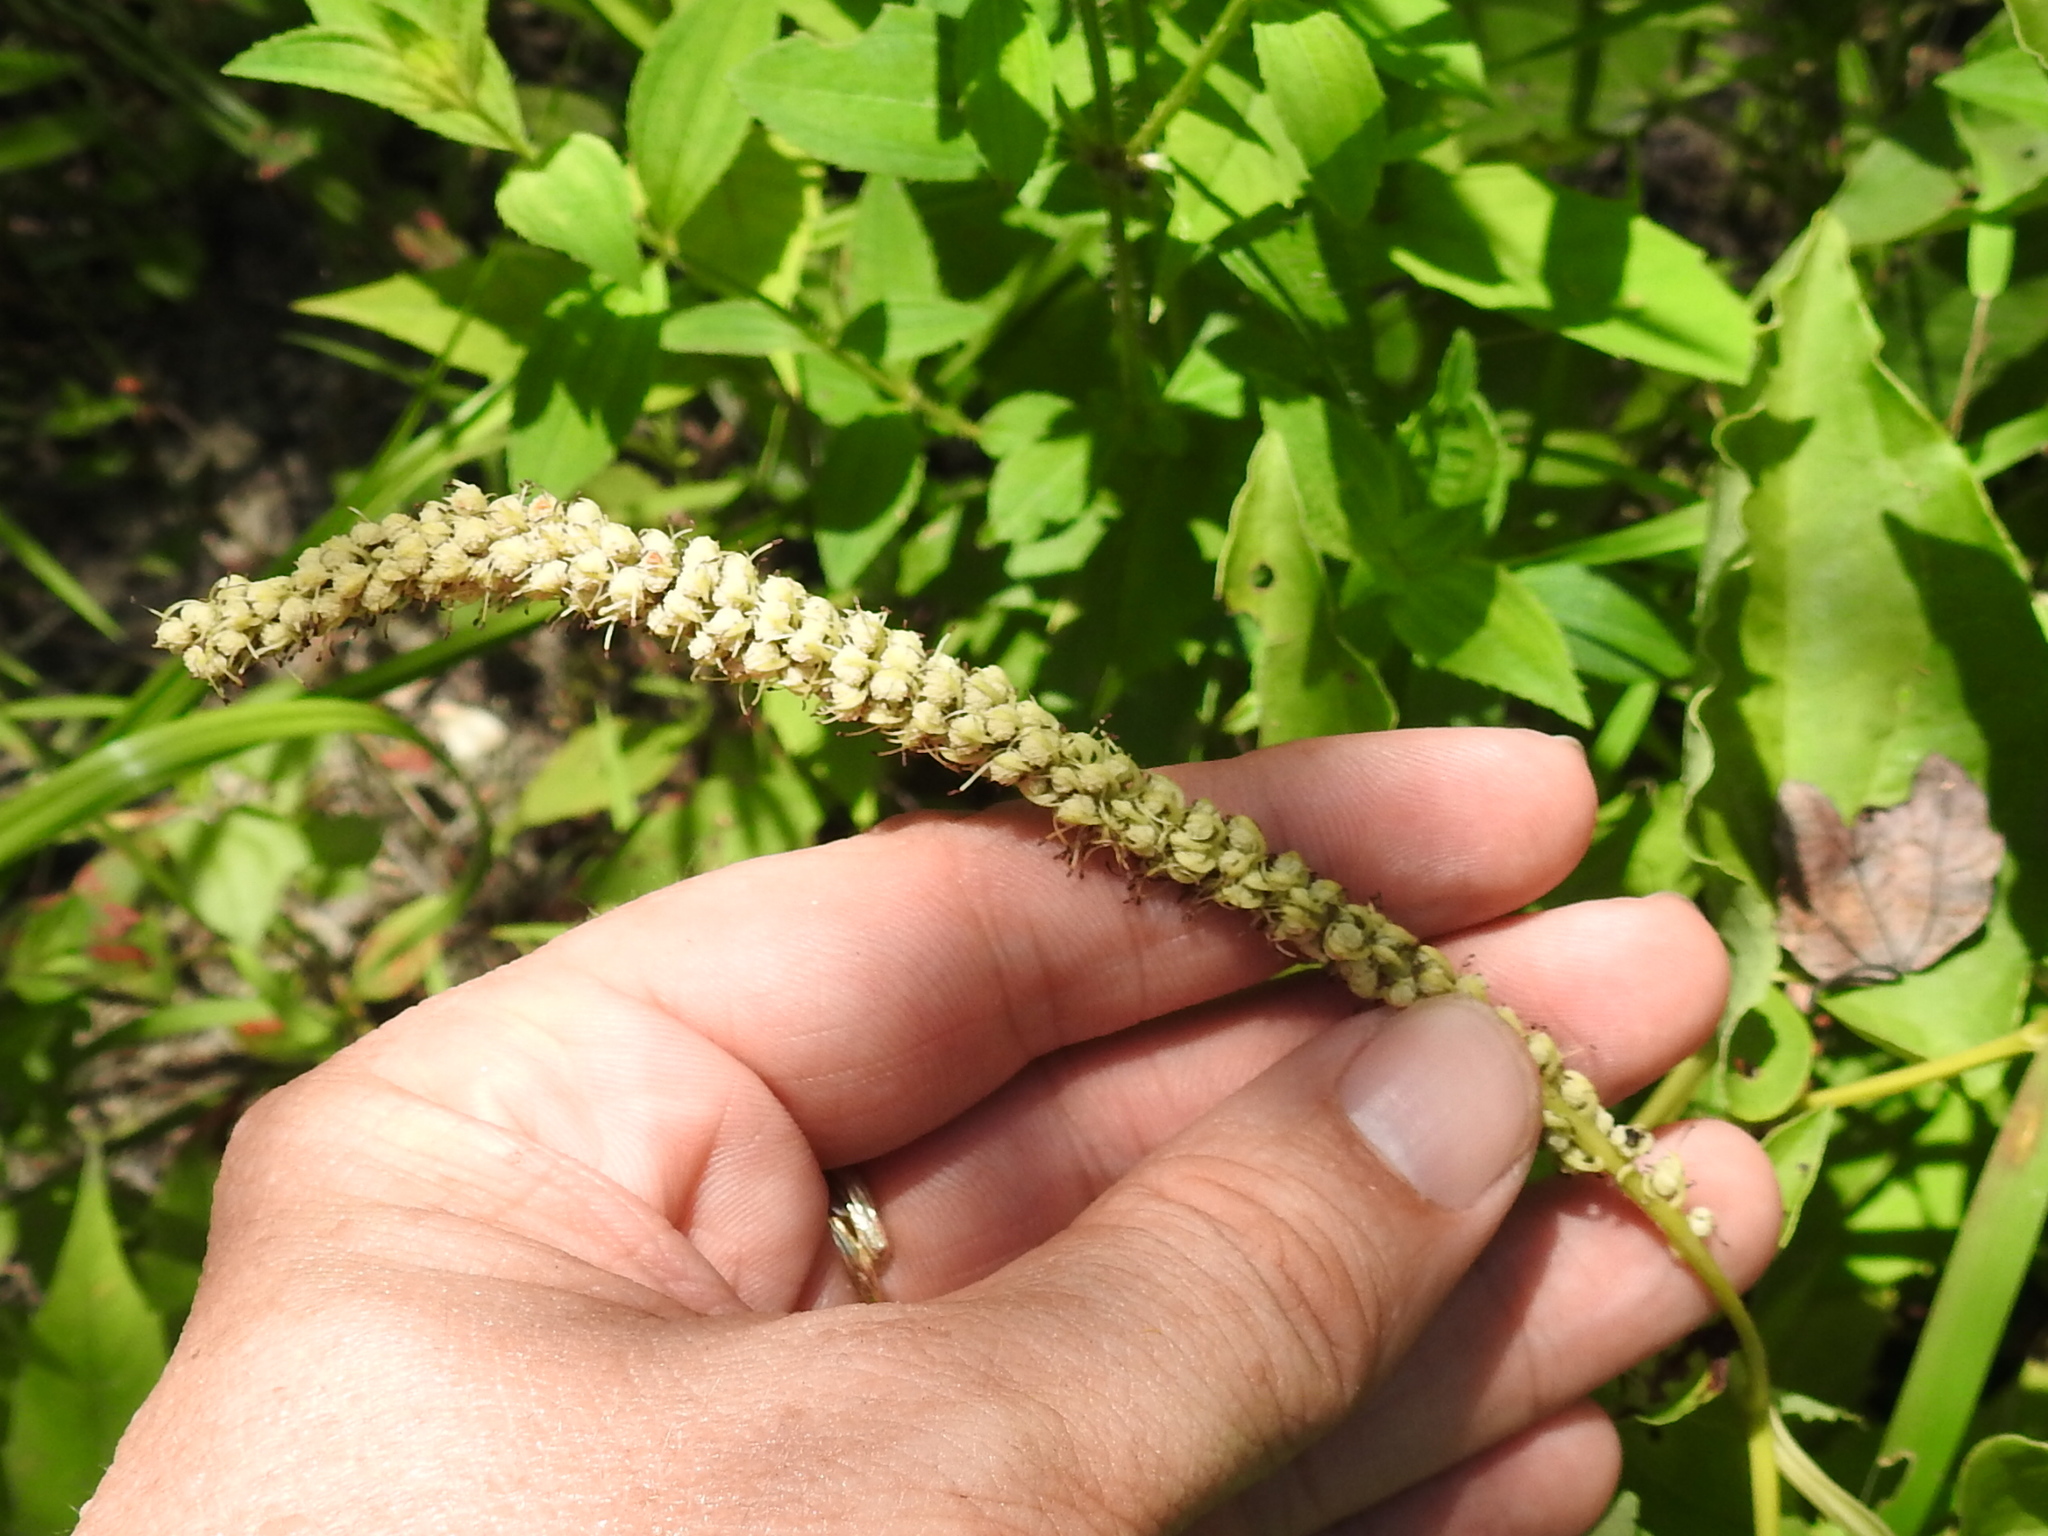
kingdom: Plantae
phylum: Tracheophyta
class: Magnoliopsida
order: Piperales
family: Saururaceae
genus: Saururus
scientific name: Saururus cernuus
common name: Lizard's-tail
